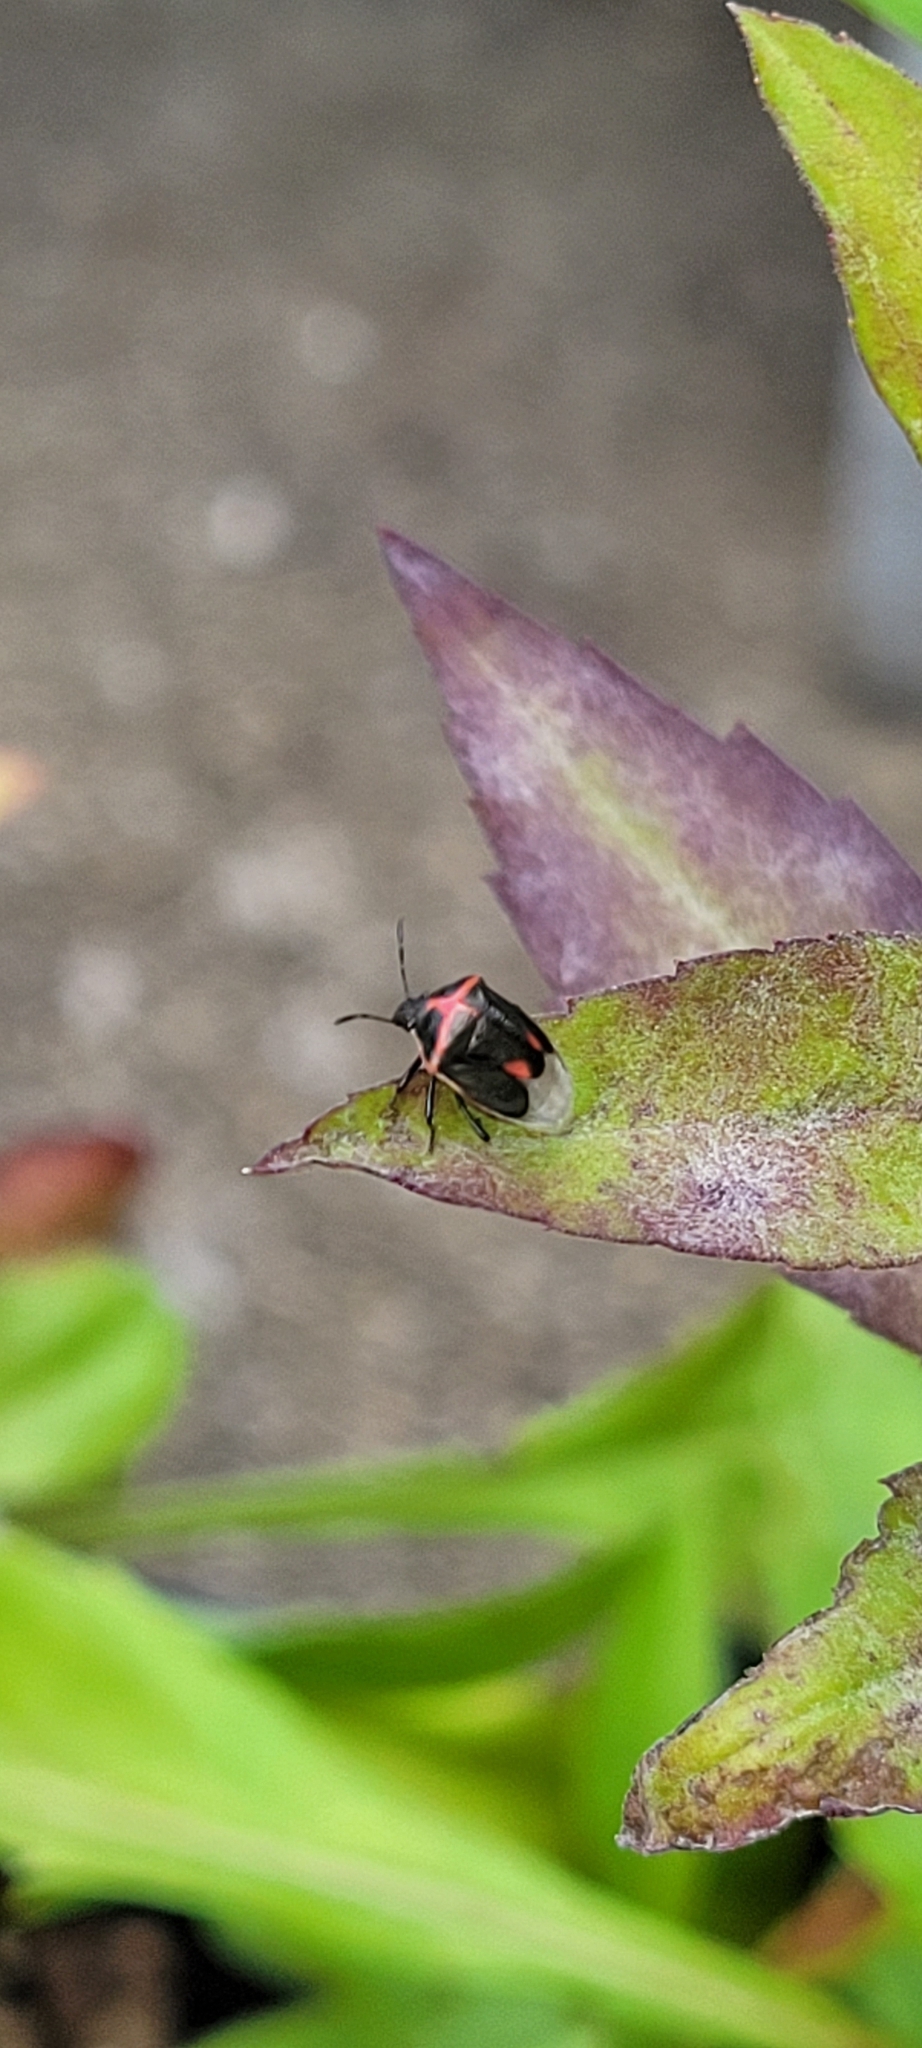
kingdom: Animalia
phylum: Arthropoda
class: Insecta
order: Hemiptera
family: Pentatomidae
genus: Cosmopepla
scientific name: Cosmopepla lintneriana
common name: Twice-stabbed stink bug
